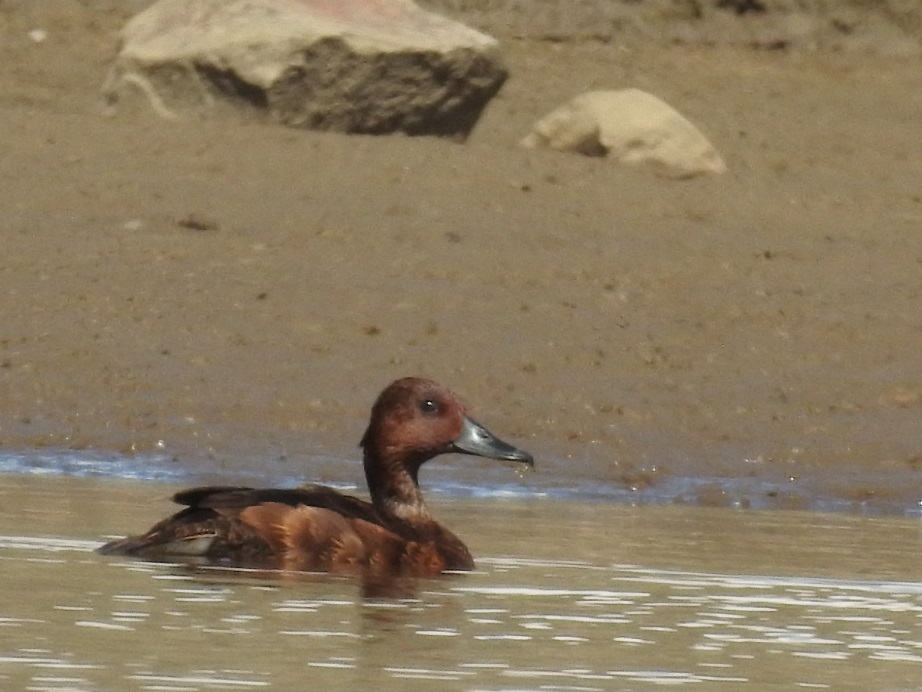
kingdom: Animalia
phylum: Chordata
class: Aves
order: Anseriformes
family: Anatidae
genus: Aythya
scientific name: Aythya nyroca
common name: Ferruginous duck
